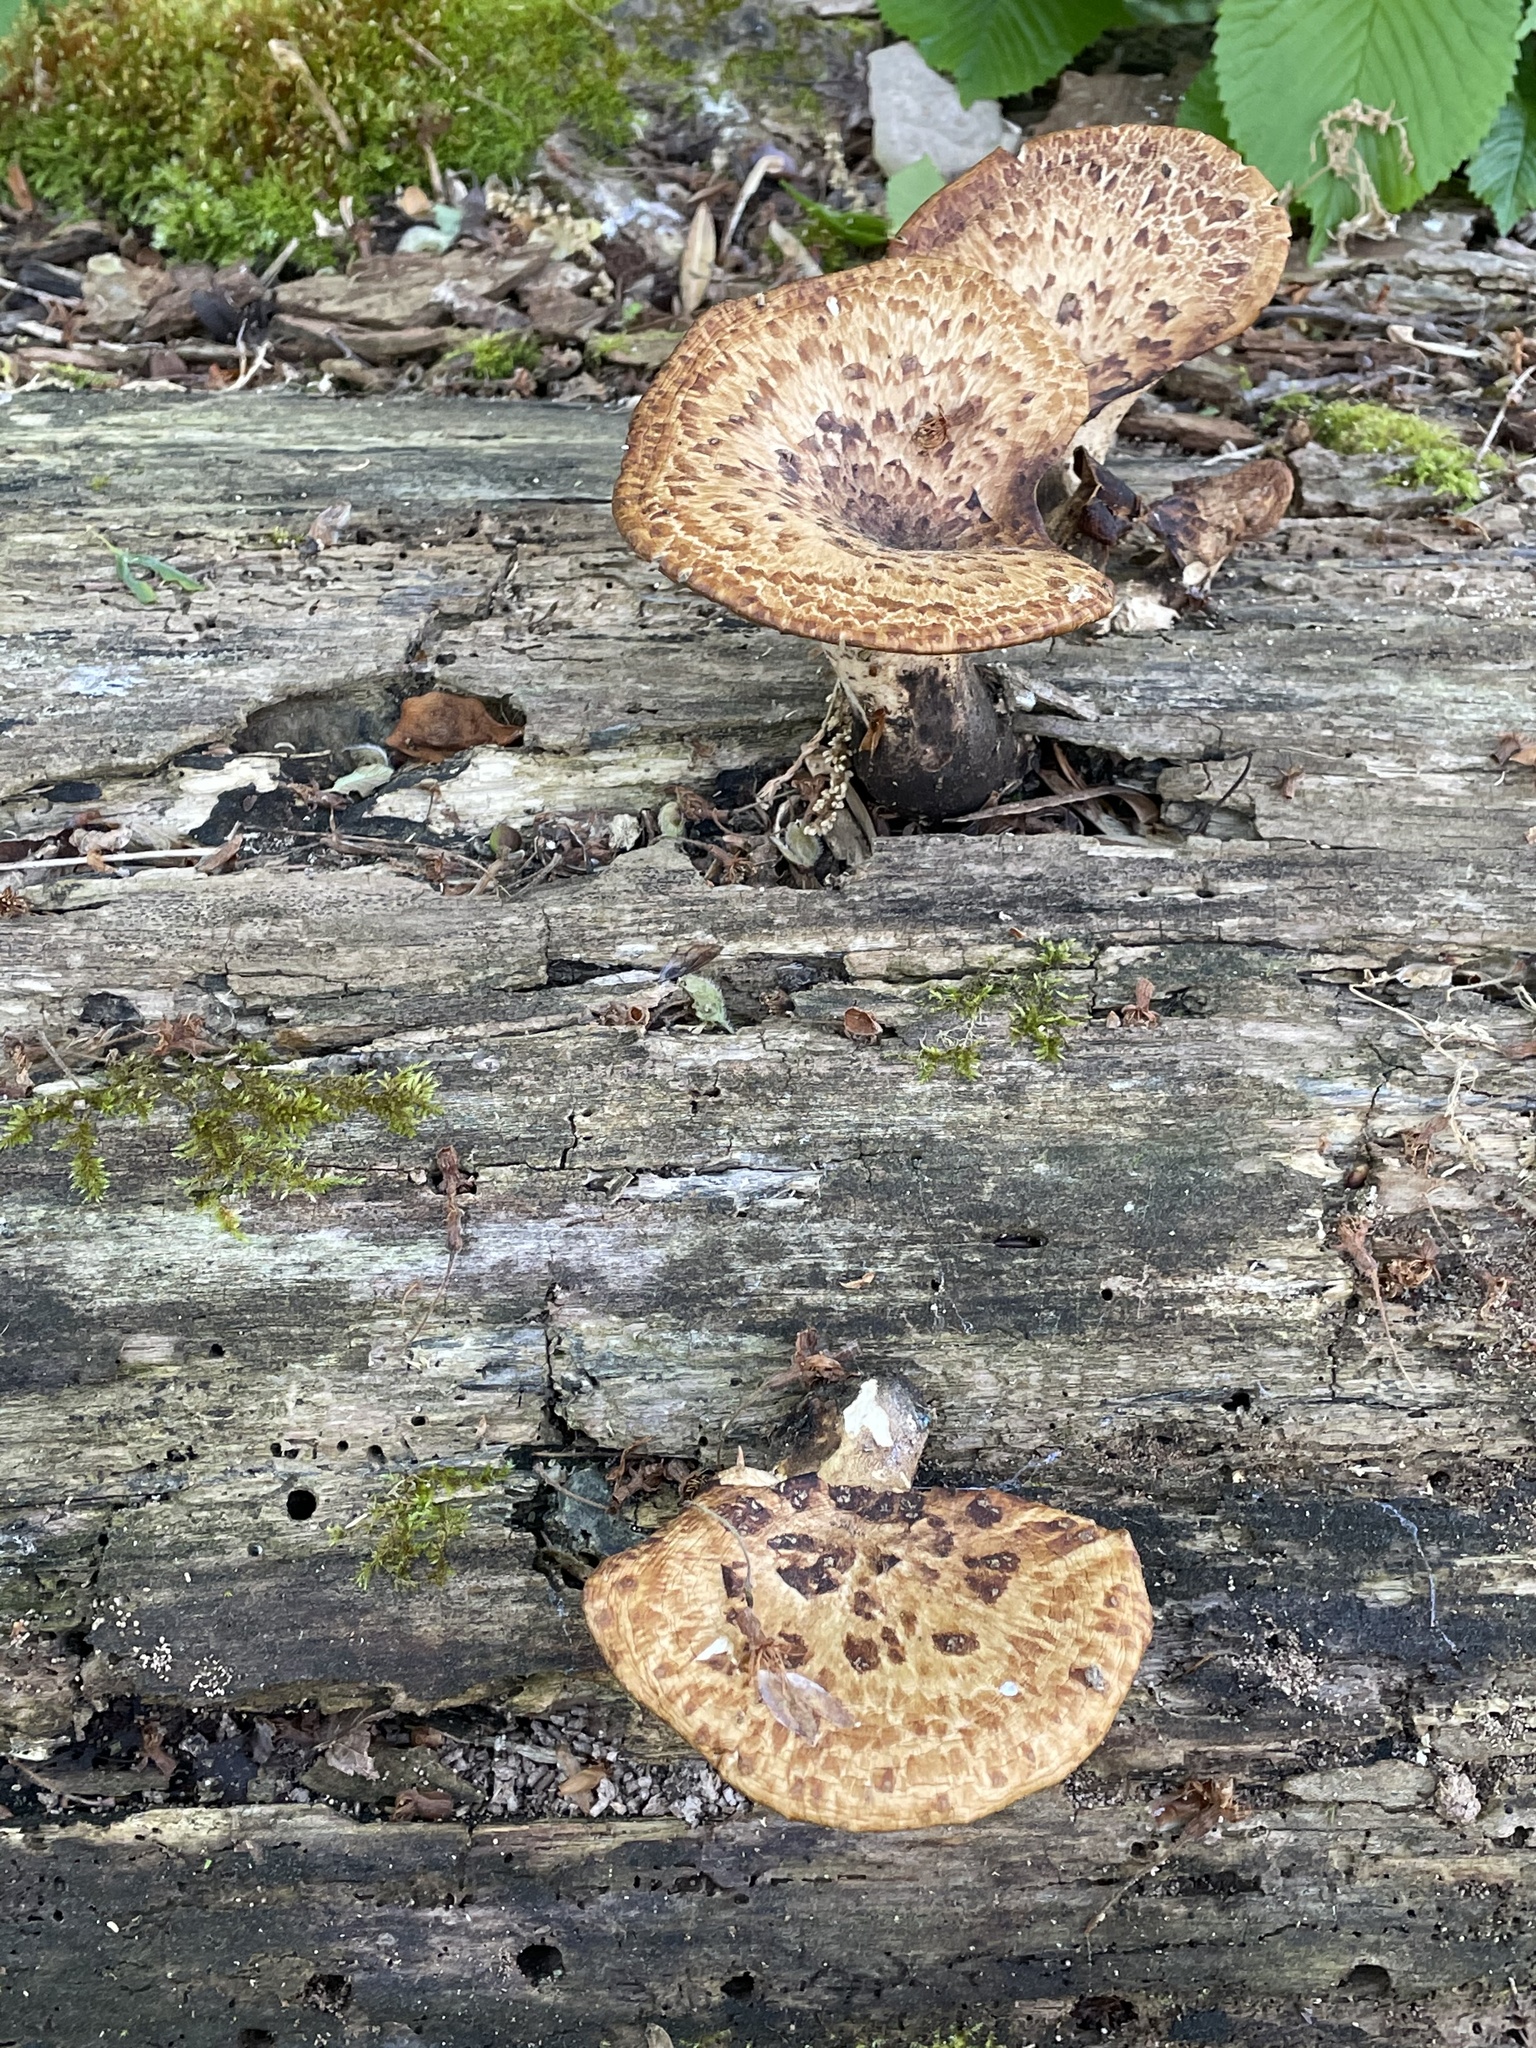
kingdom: Fungi
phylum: Basidiomycota
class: Agaricomycetes
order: Polyporales
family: Polyporaceae
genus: Cerioporus
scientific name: Cerioporus squamosus
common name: Dryad's saddle
